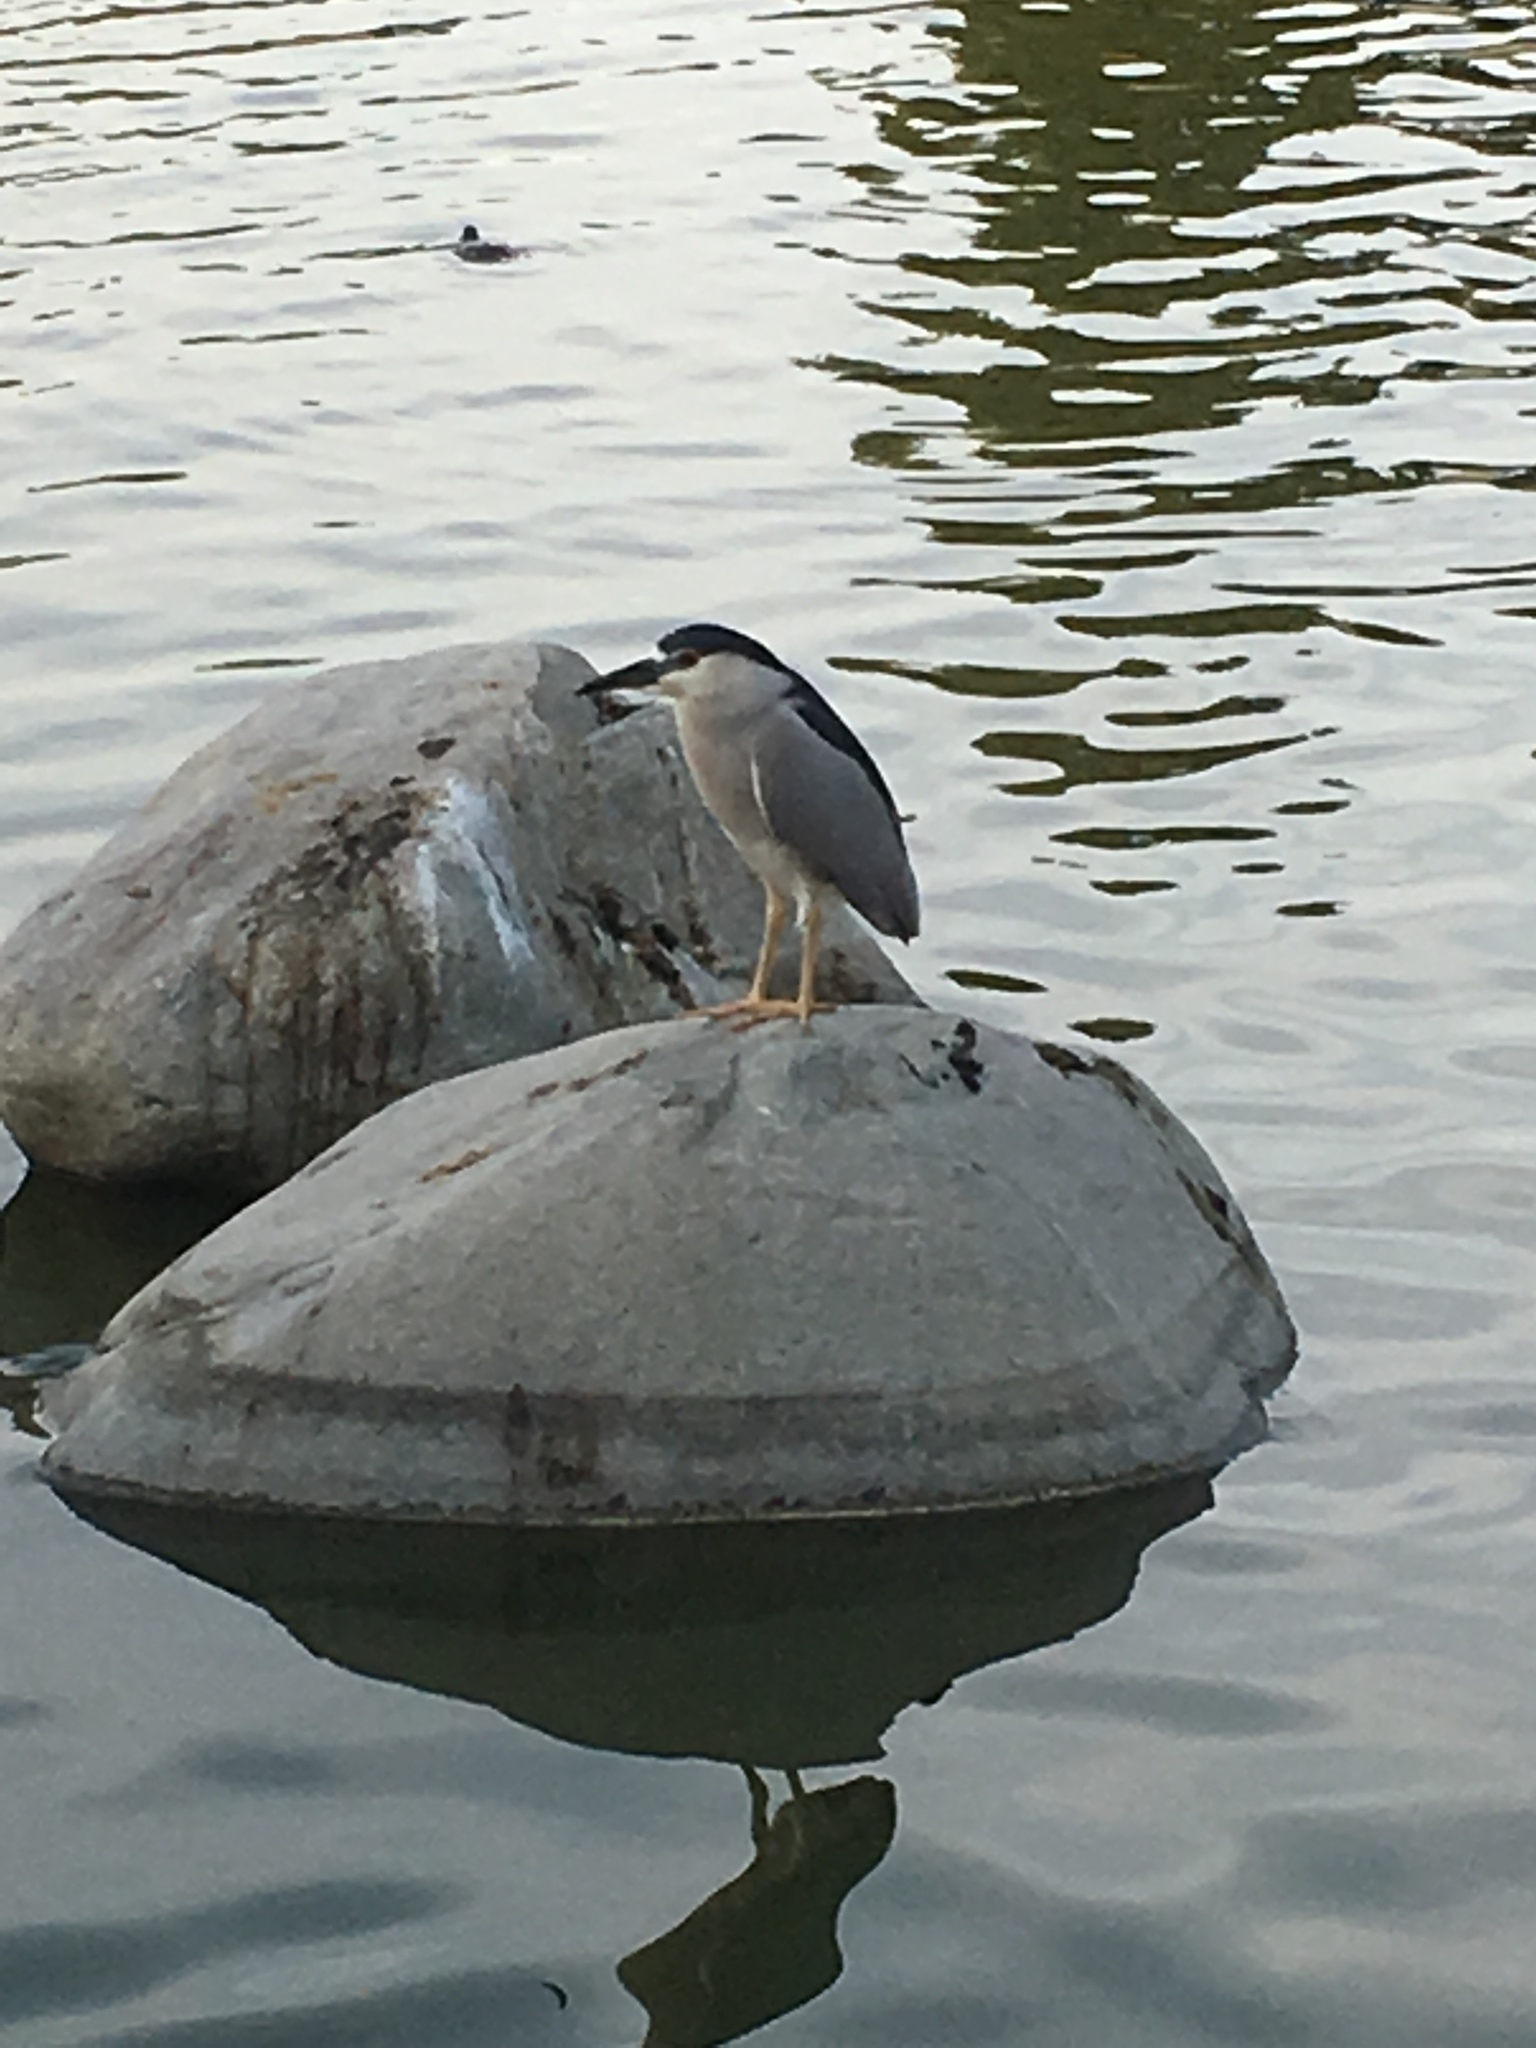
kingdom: Animalia
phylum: Chordata
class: Aves
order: Pelecaniformes
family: Ardeidae
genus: Nycticorax
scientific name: Nycticorax nycticorax
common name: Black-crowned night heron
